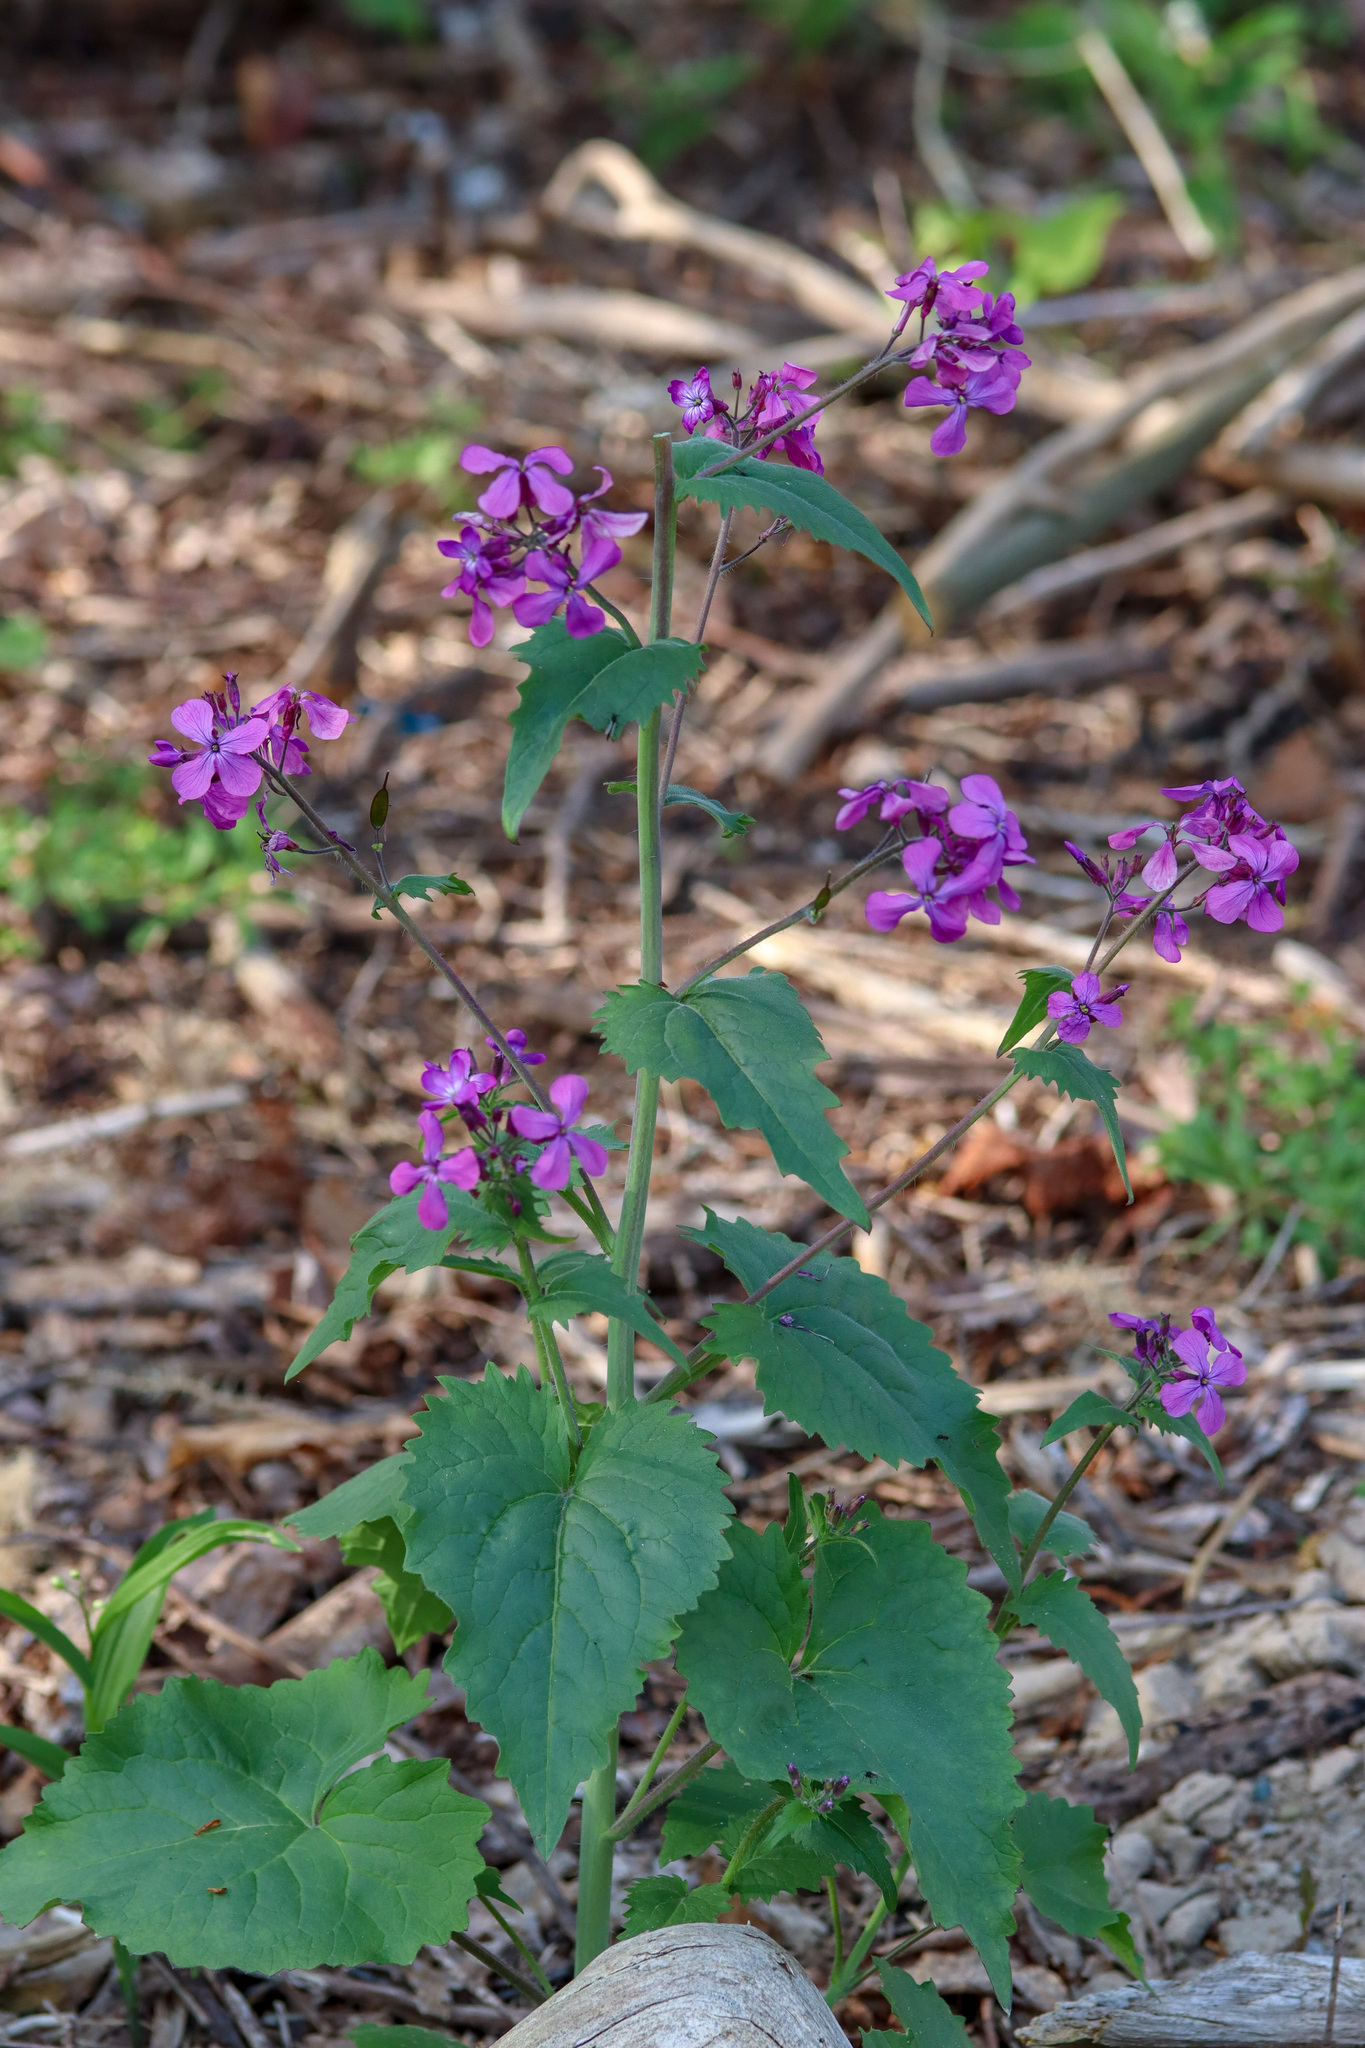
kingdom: Plantae
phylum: Tracheophyta
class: Magnoliopsida
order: Brassicales
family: Brassicaceae
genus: Lunaria
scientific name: Lunaria annua
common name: Honesty
